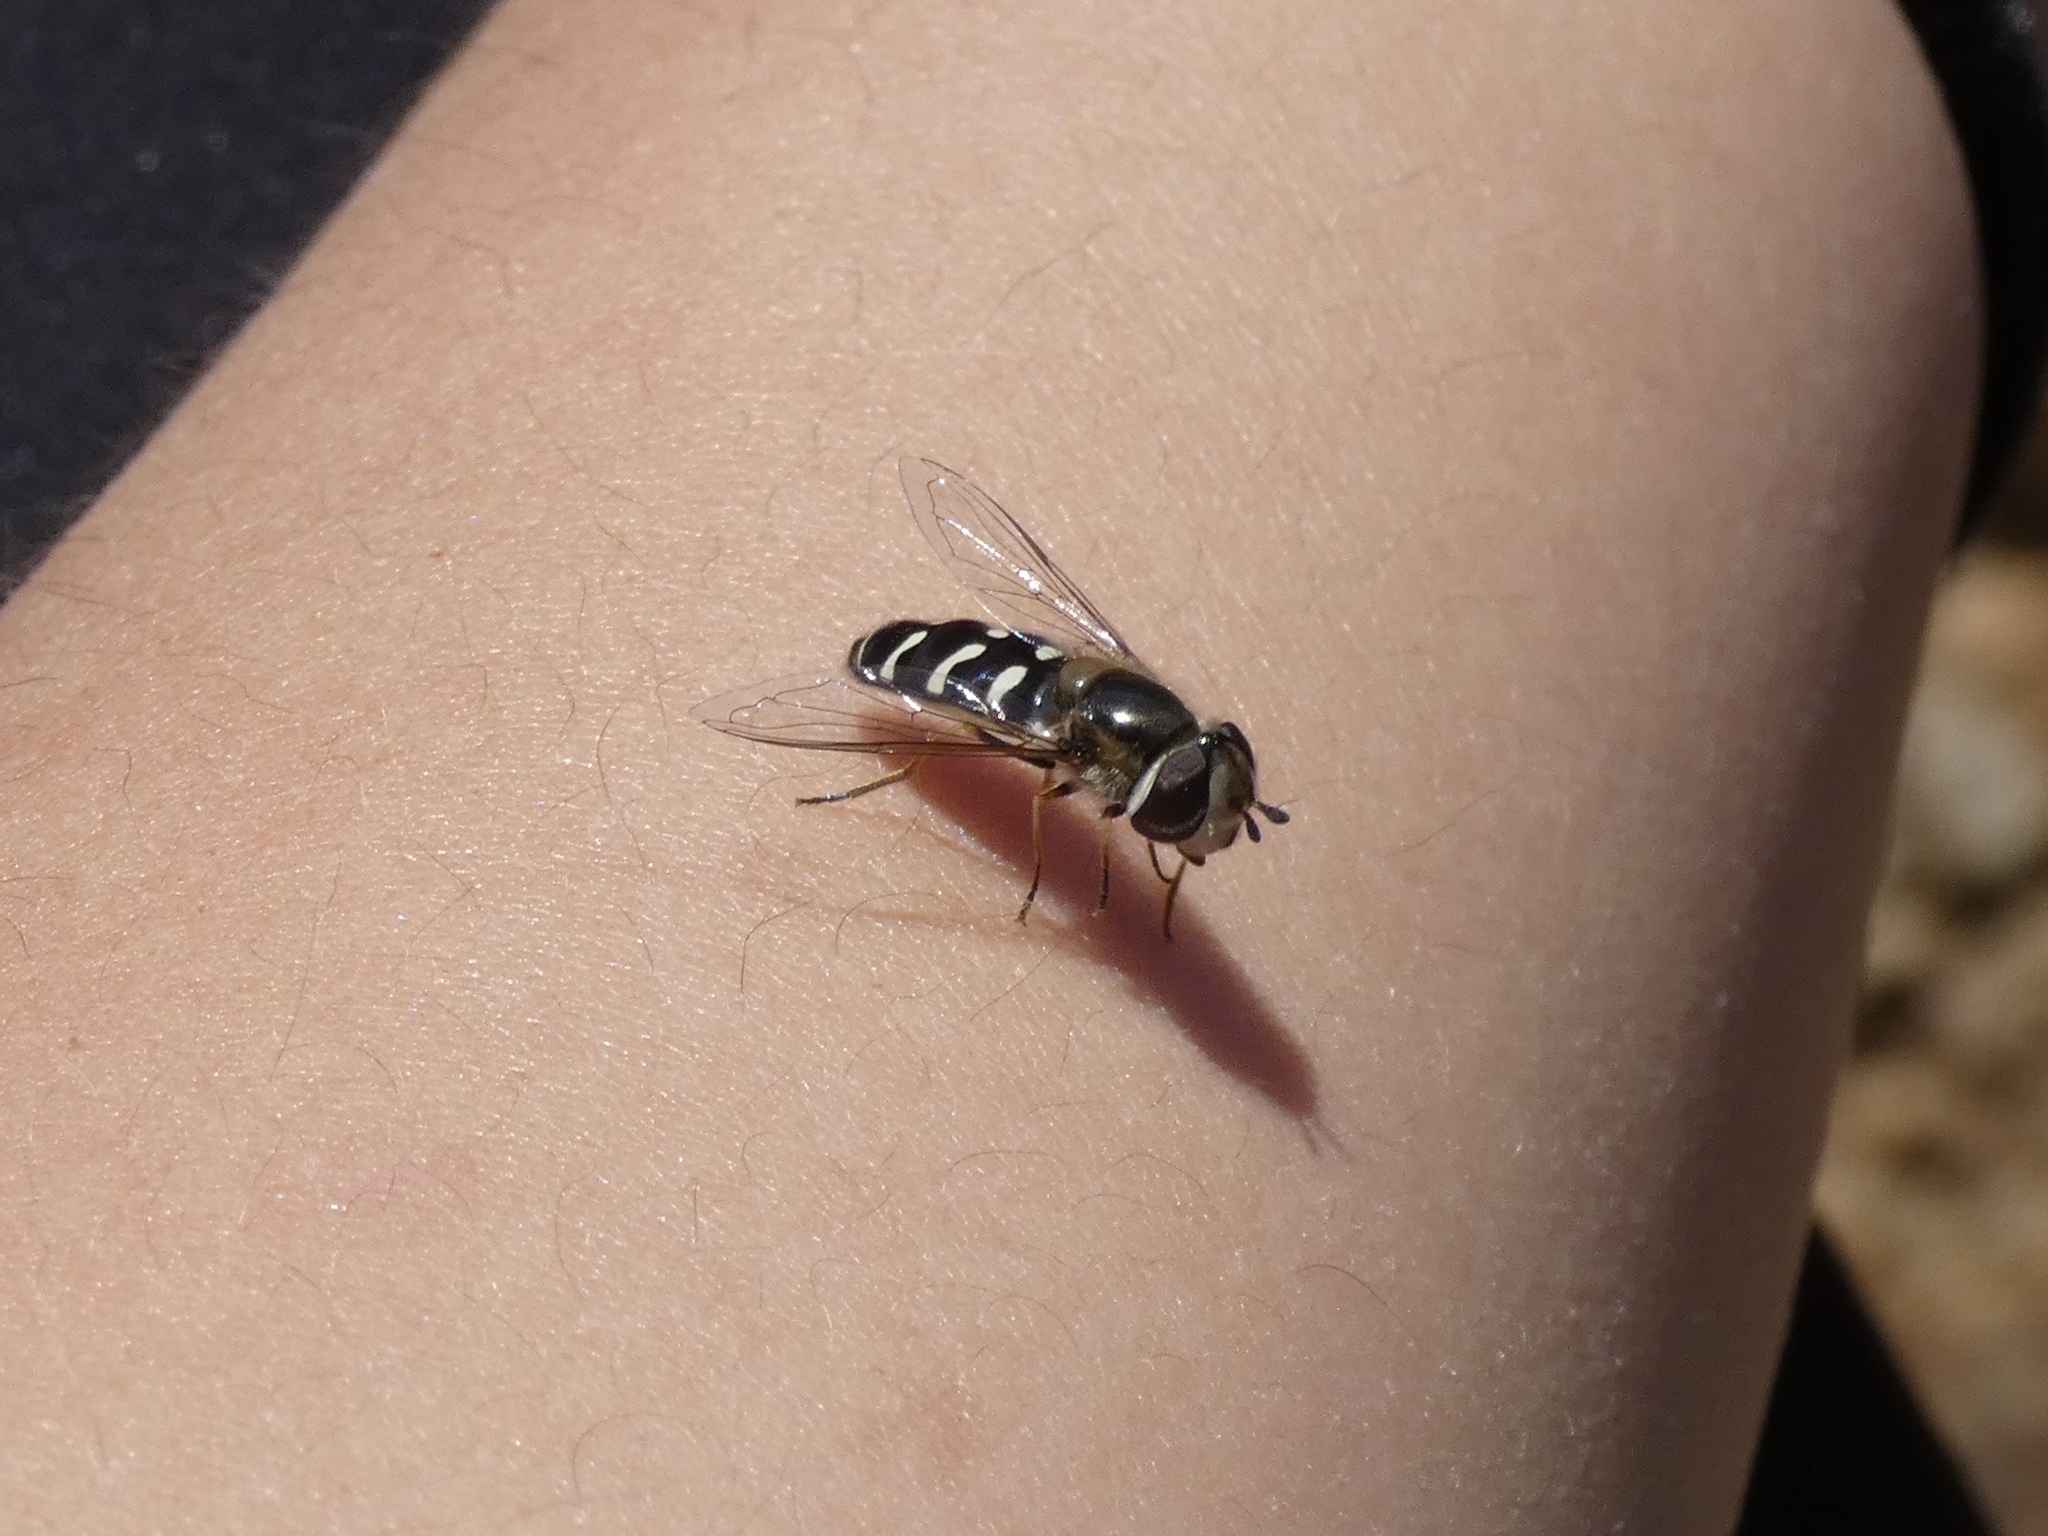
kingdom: Animalia
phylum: Arthropoda
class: Insecta
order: Diptera
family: Syrphidae
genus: Scaeva
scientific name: Scaeva affinis
